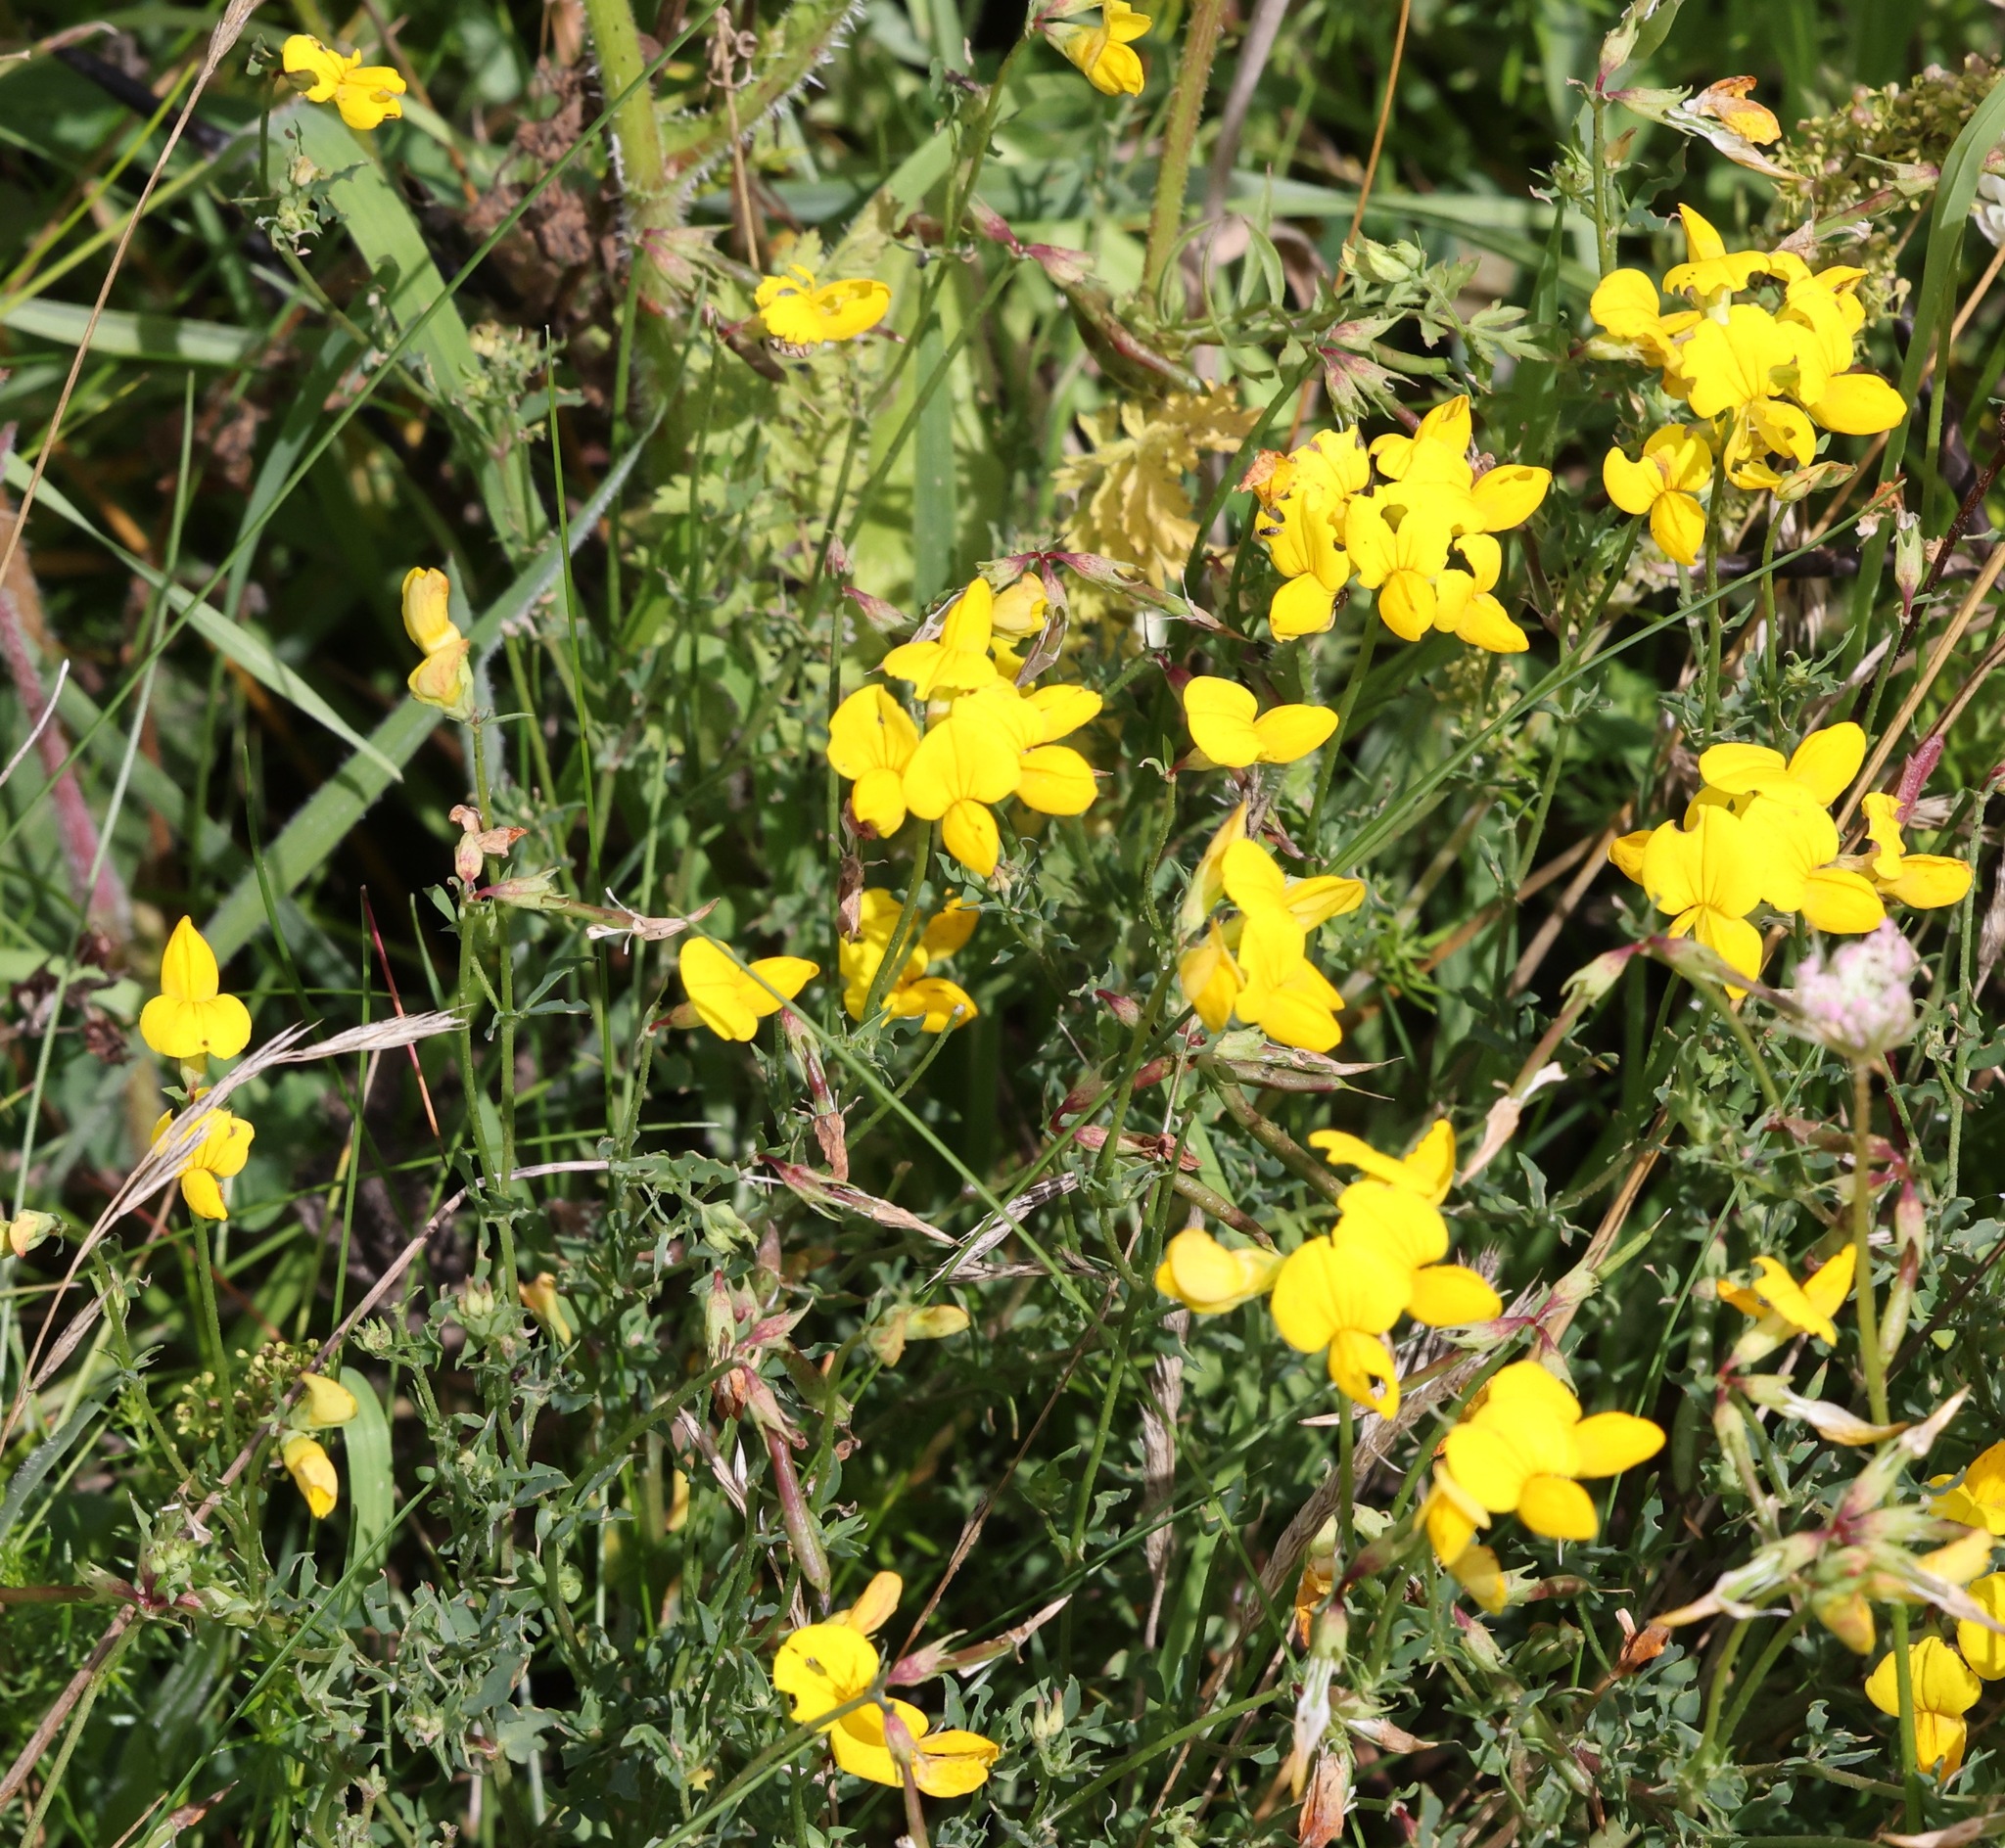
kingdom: Plantae
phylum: Tracheophyta
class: Magnoliopsida
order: Fabales
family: Fabaceae
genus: Lotus
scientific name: Lotus corniculatus
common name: Common bird's-foot-trefoil
